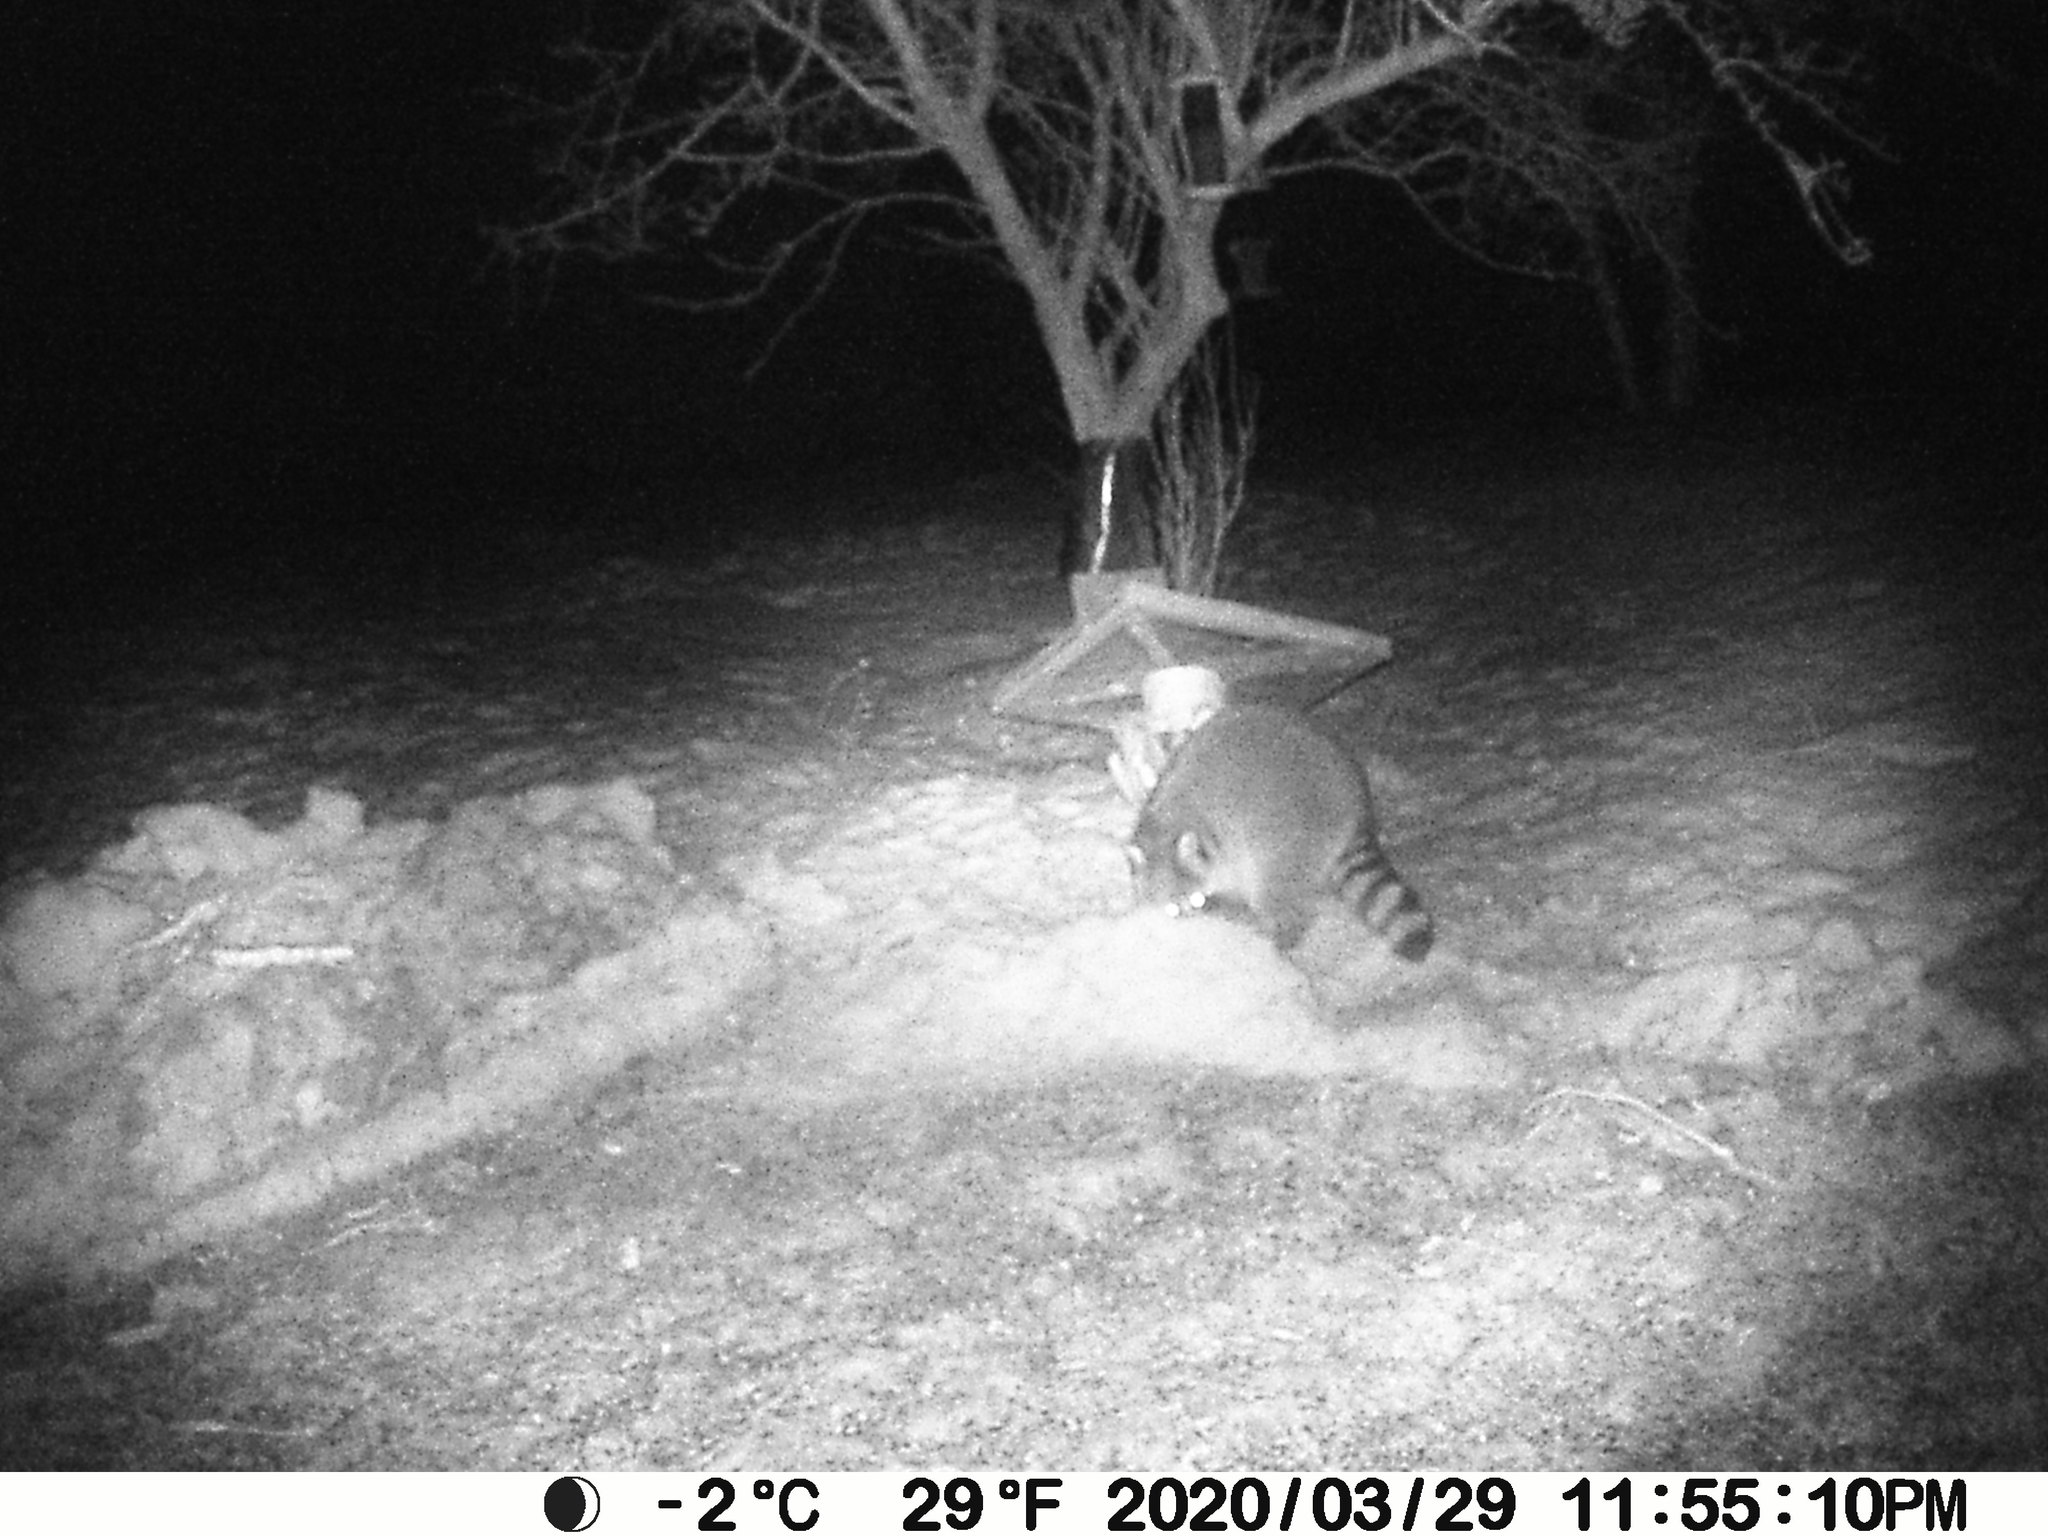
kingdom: Animalia
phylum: Chordata
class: Mammalia
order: Carnivora
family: Procyonidae
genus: Procyon
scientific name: Procyon lotor
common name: Raccoon
